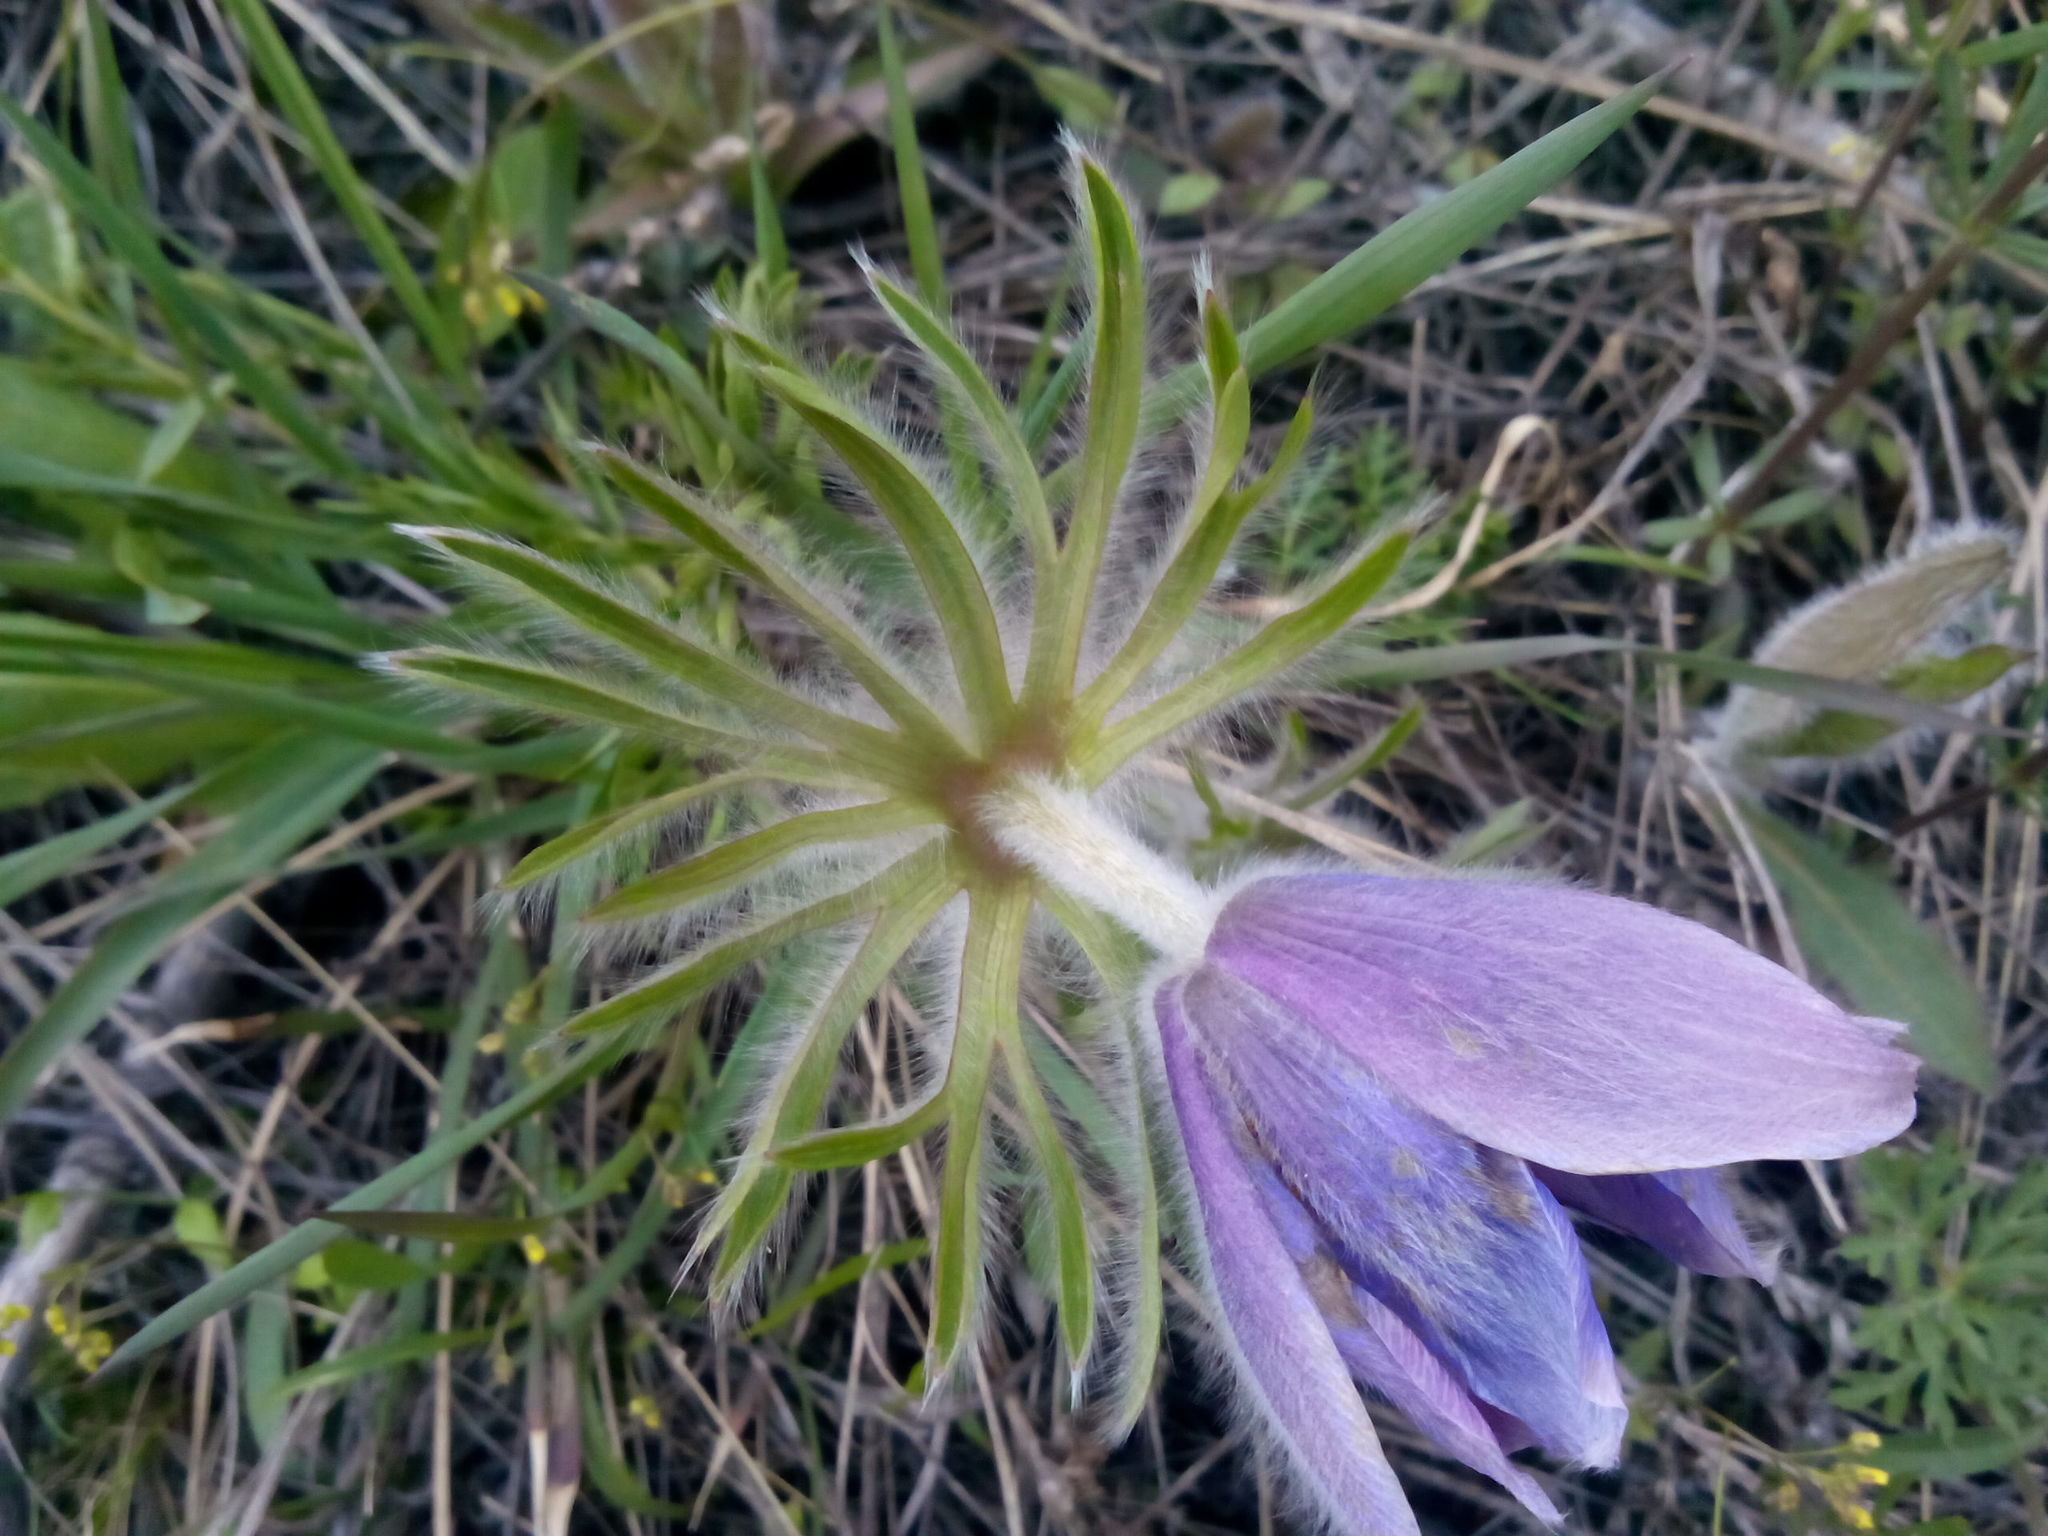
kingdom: Plantae
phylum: Tracheophyta
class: Magnoliopsida
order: Ranunculales
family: Ranunculaceae
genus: Pulsatilla
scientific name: Pulsatilla turczaninovii
